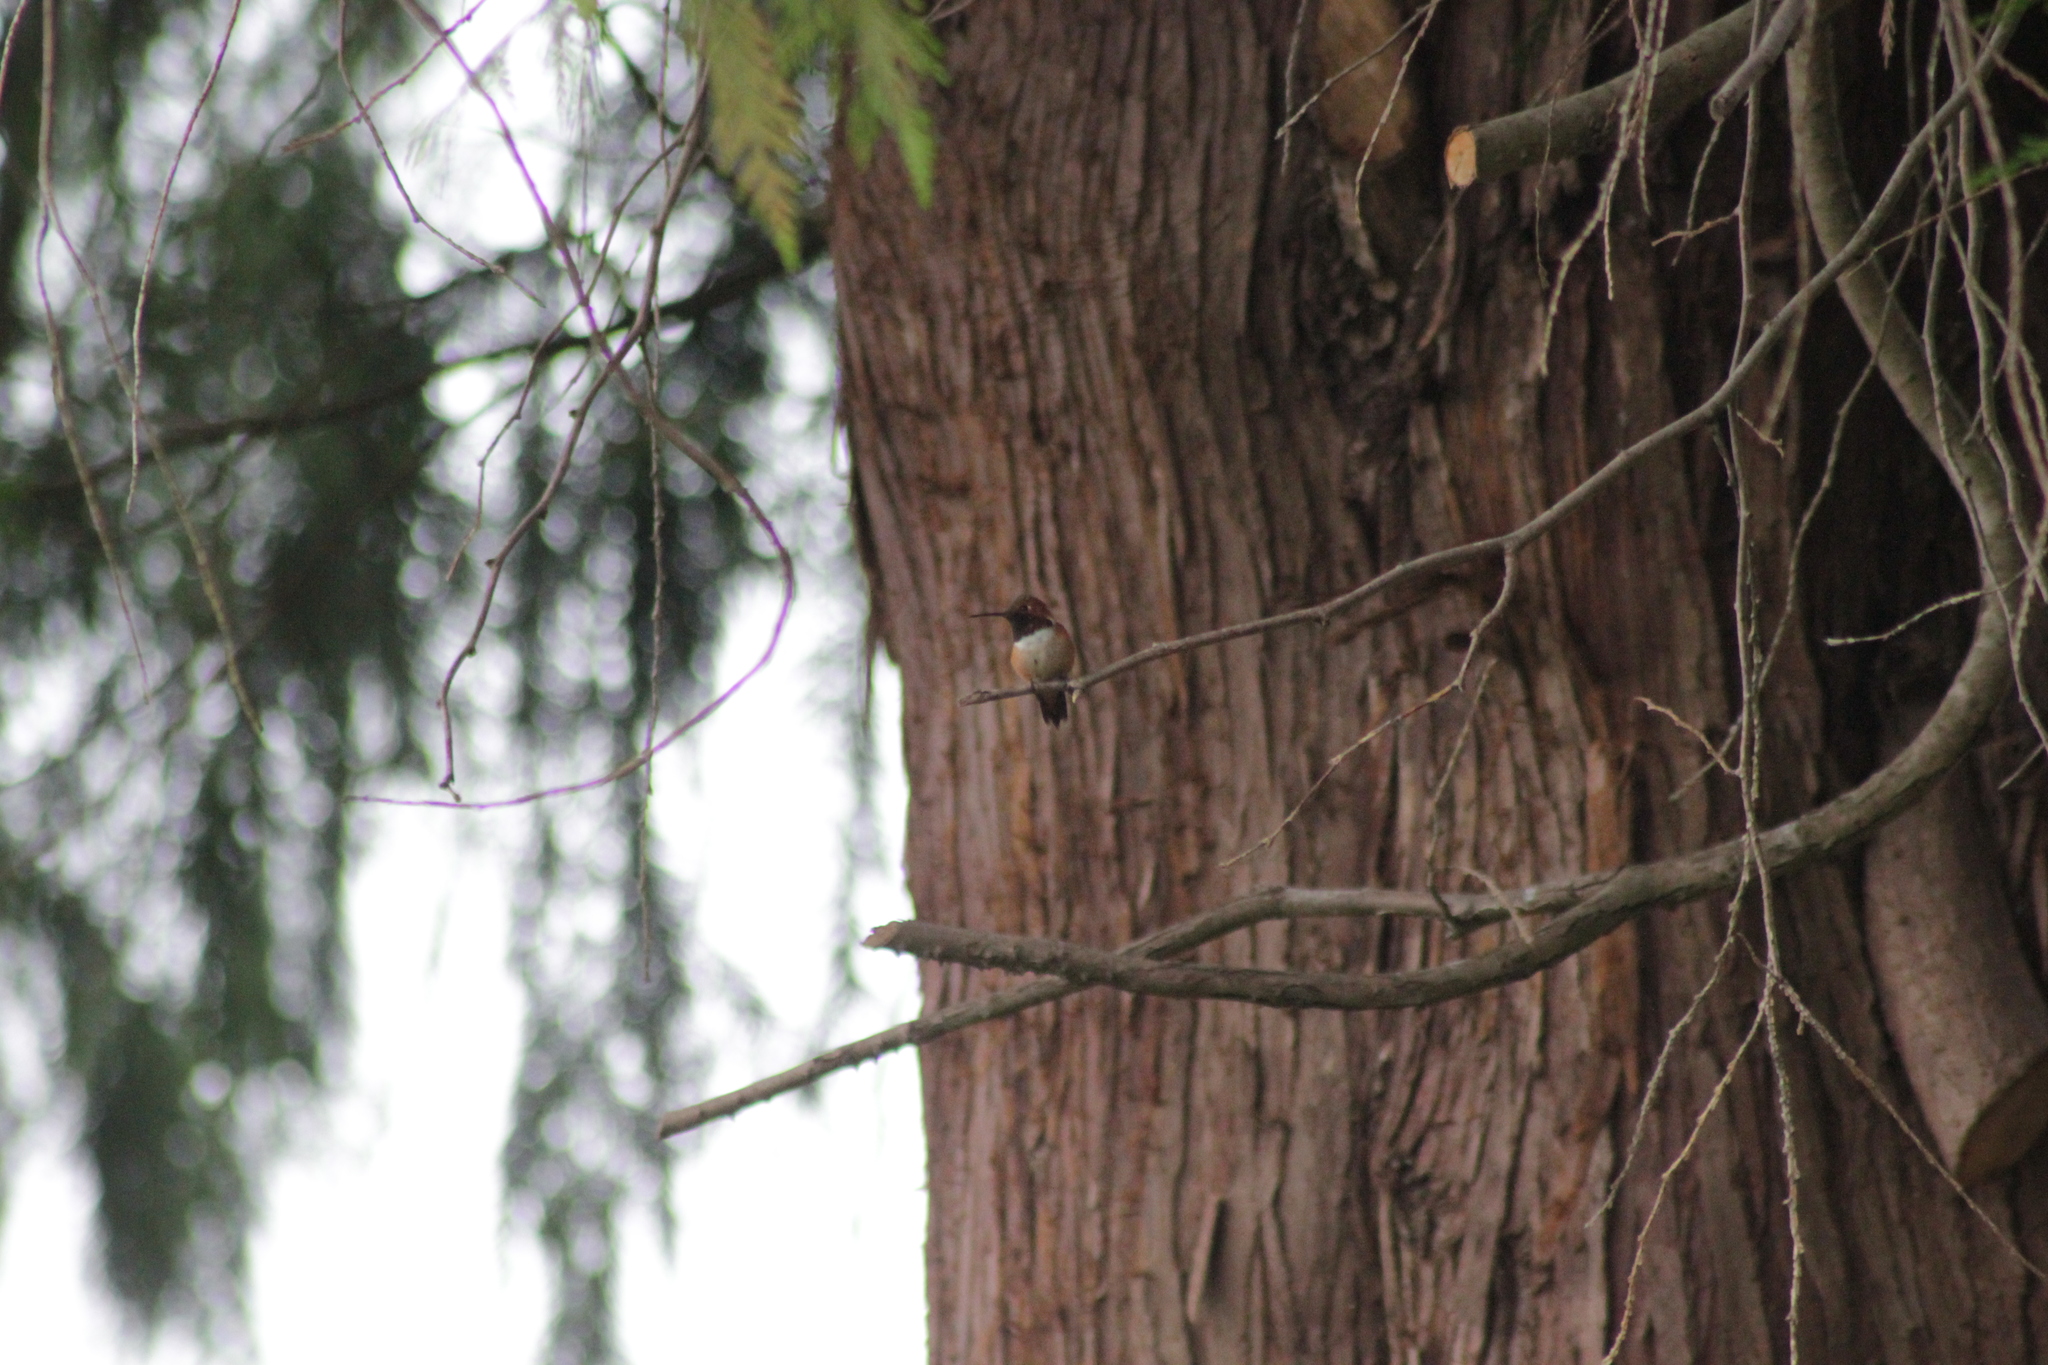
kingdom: Animalia
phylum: Chordata
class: Aves
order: Apodiformes
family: Trochilidae
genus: Selasphorus
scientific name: Selasphorus rufus
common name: Rufous hummingbird
